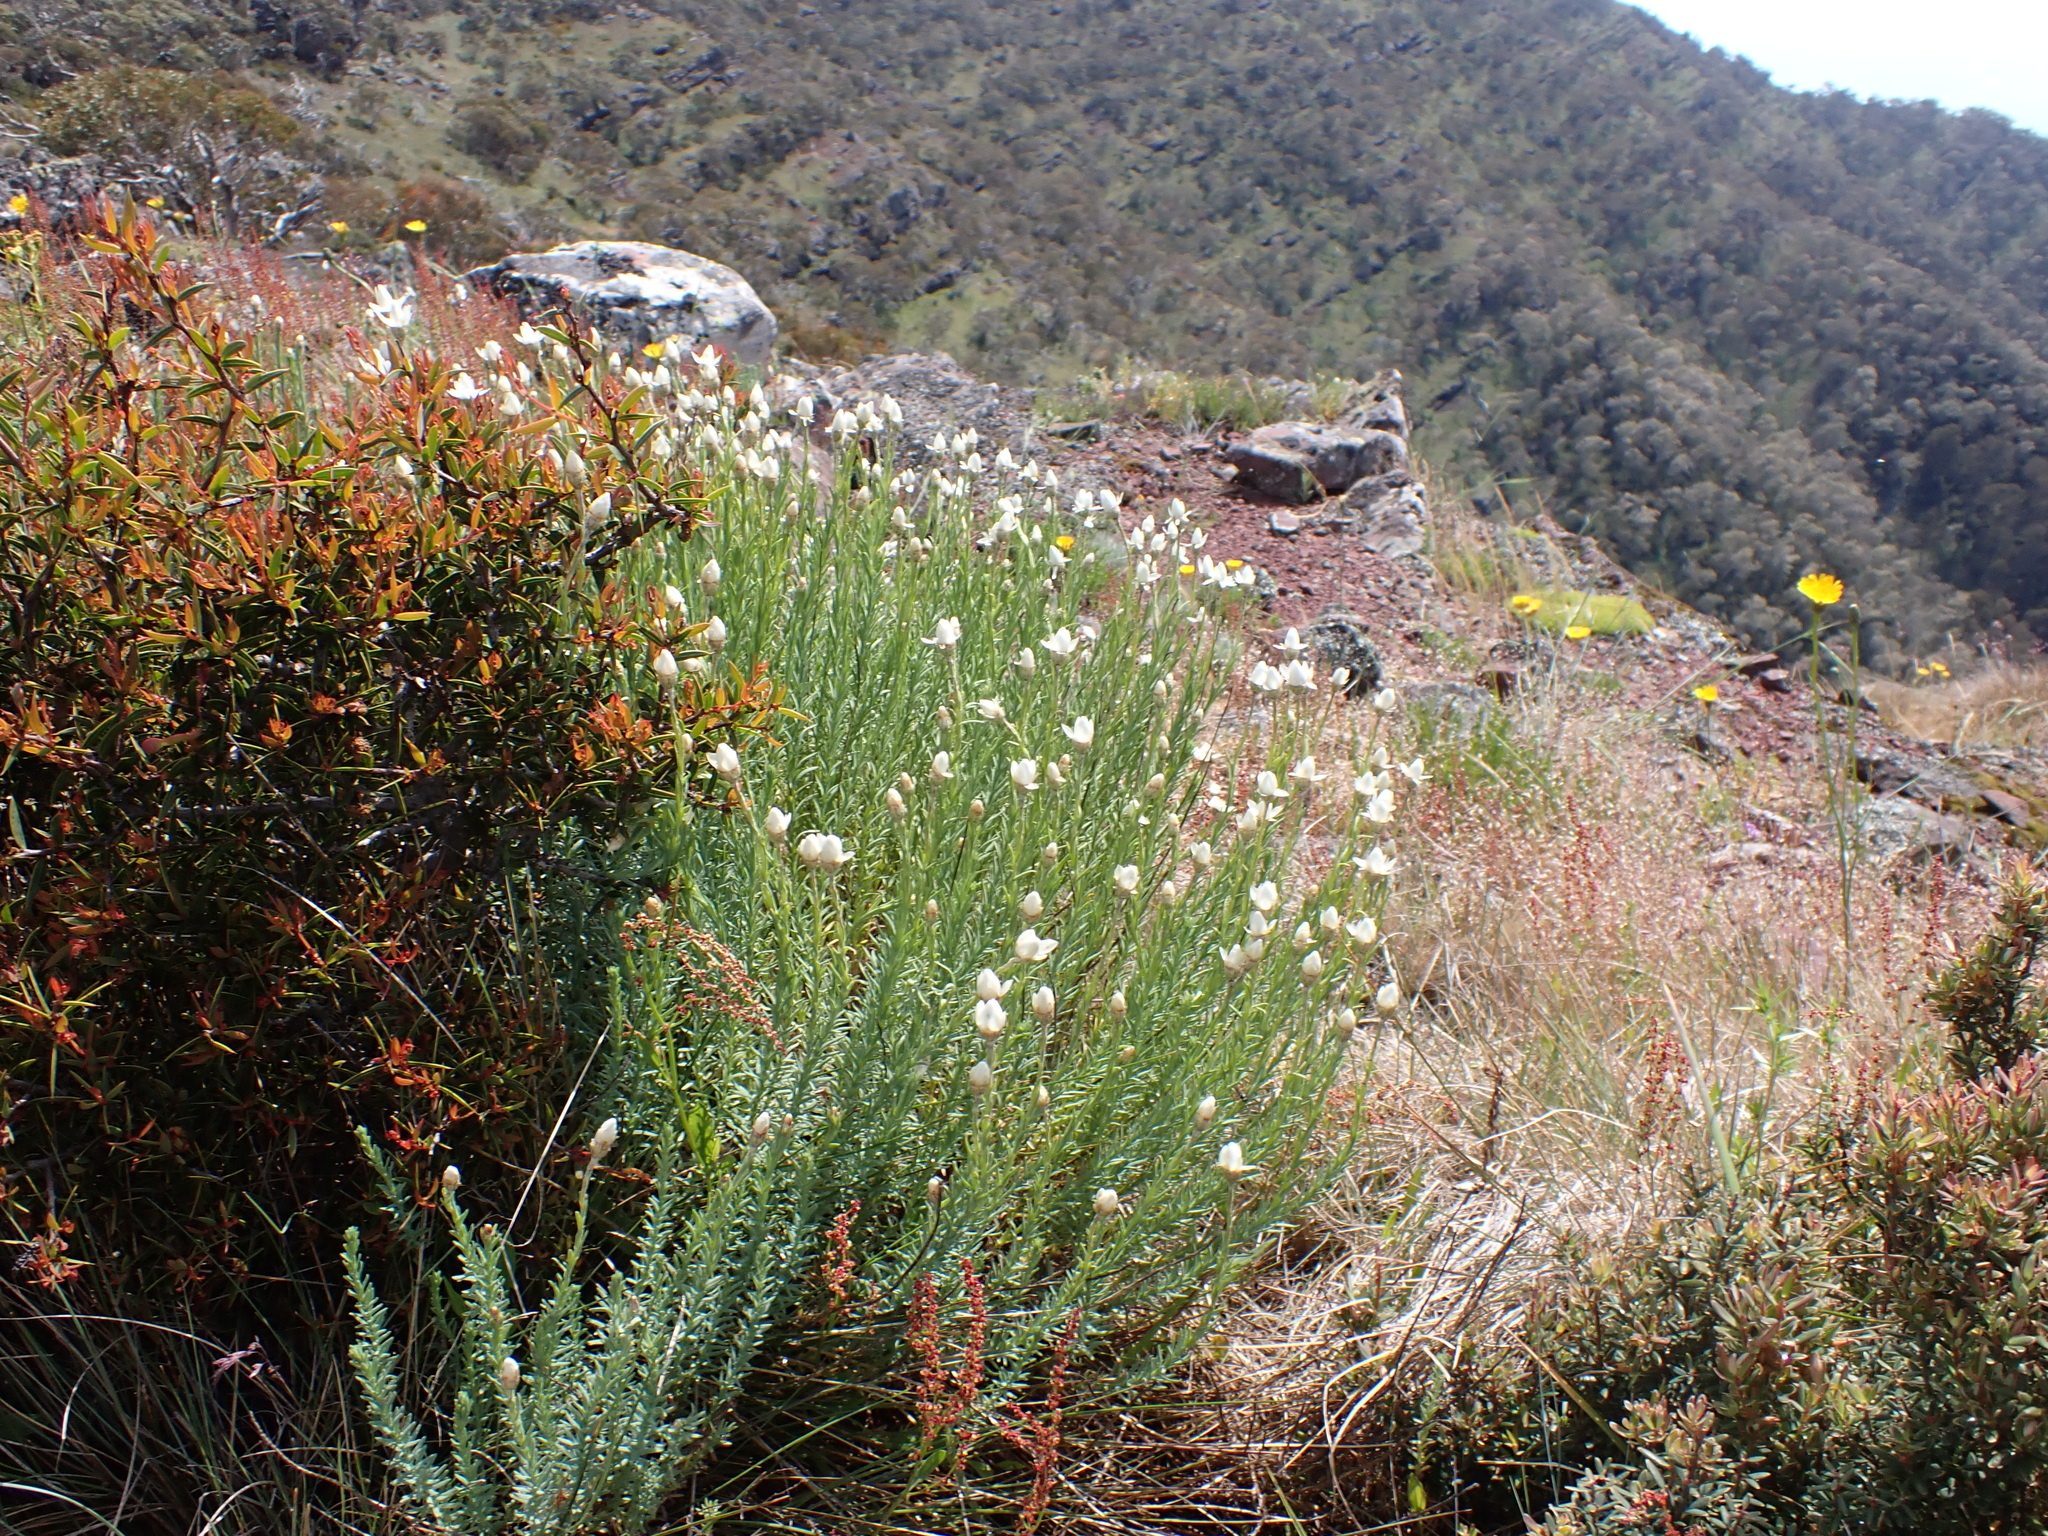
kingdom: Plantae
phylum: Tracheophyta
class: Magnoliopsida
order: Asterales
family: Asteraceae
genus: Rhodanthe
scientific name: Rhodanthe anthemoides
